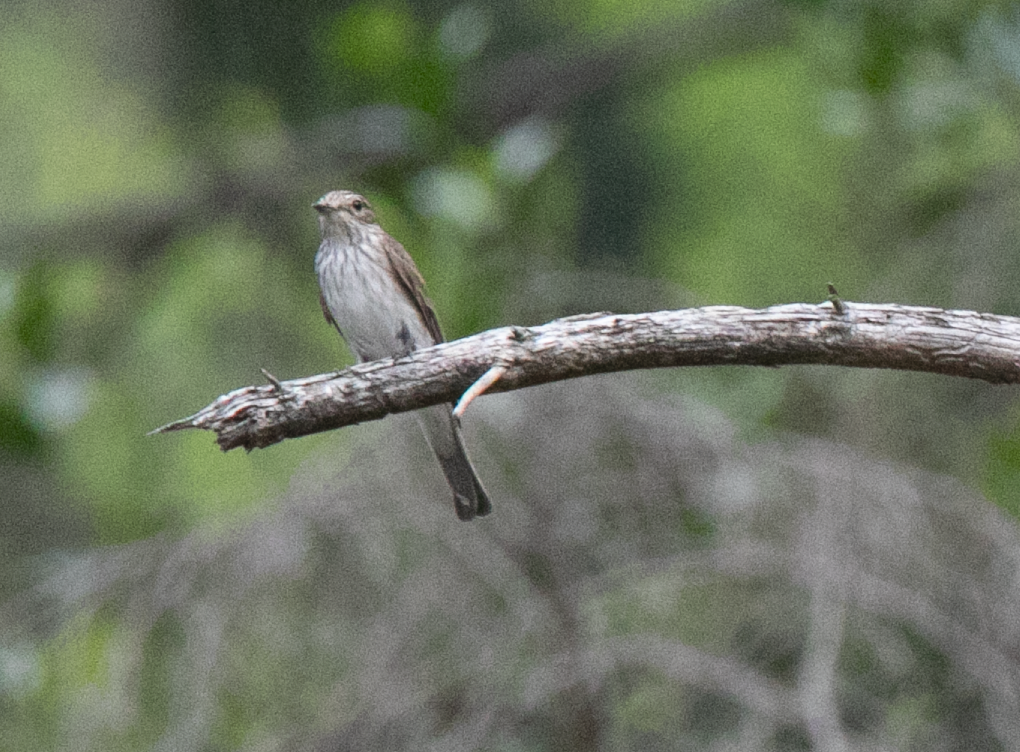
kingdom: Animalia
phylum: Chordata
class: Aves
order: Passeriformes
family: Muscicapidae
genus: Muscicapa
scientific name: Muscicapa striata
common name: Spotted flycatcher
